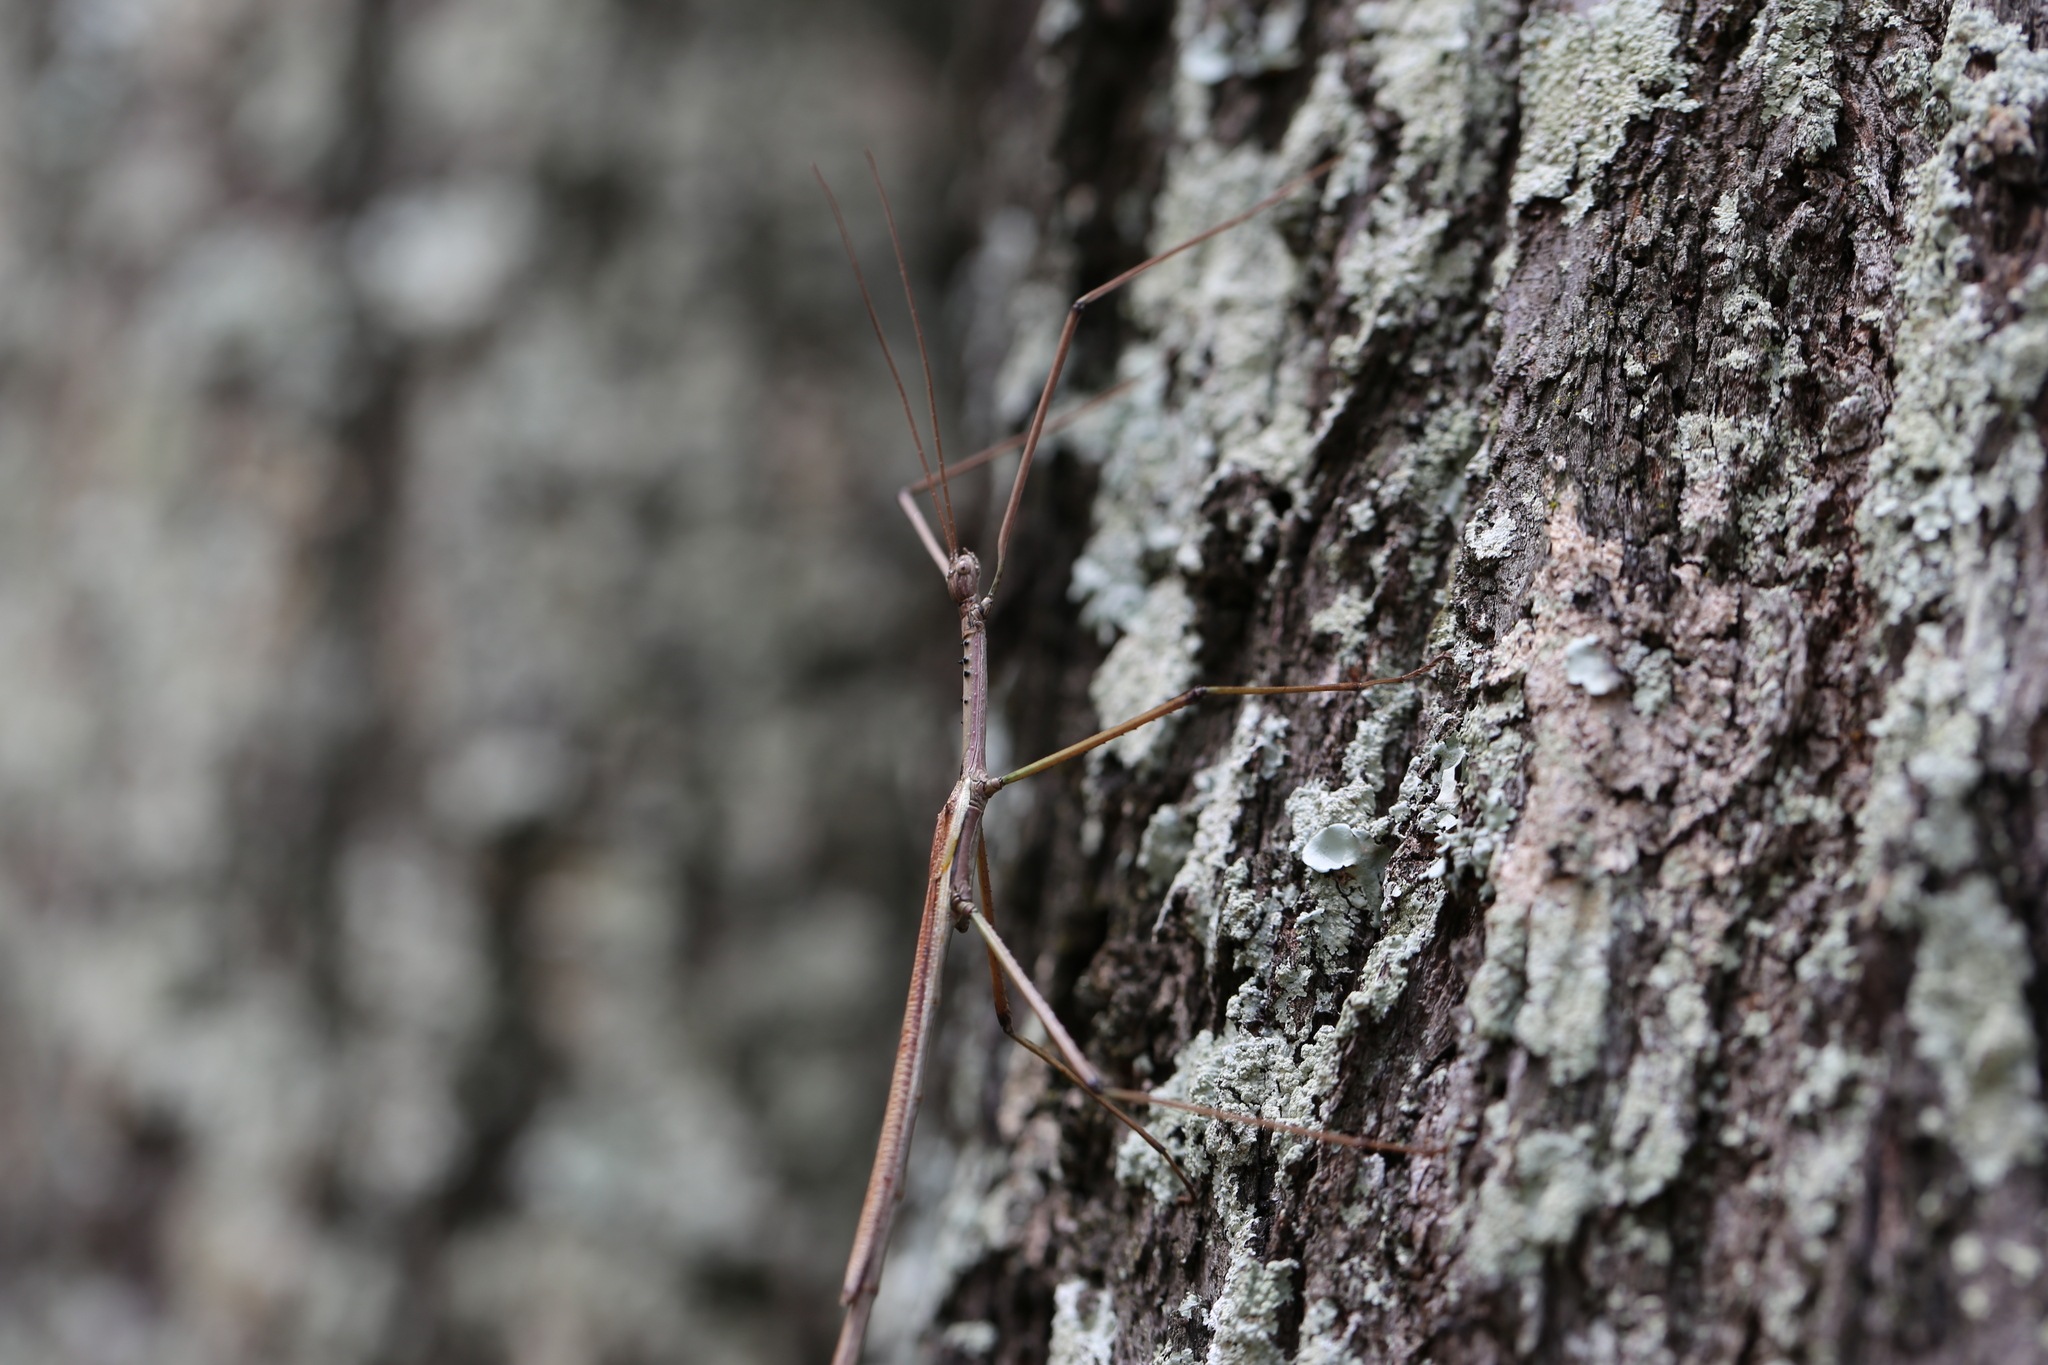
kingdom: Animalia
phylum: Arthropoda
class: Insecta
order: Phasmida
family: Phasmatidae
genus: Anchiale
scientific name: Anchiale austrotessulata
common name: Tessellated stick-insect
